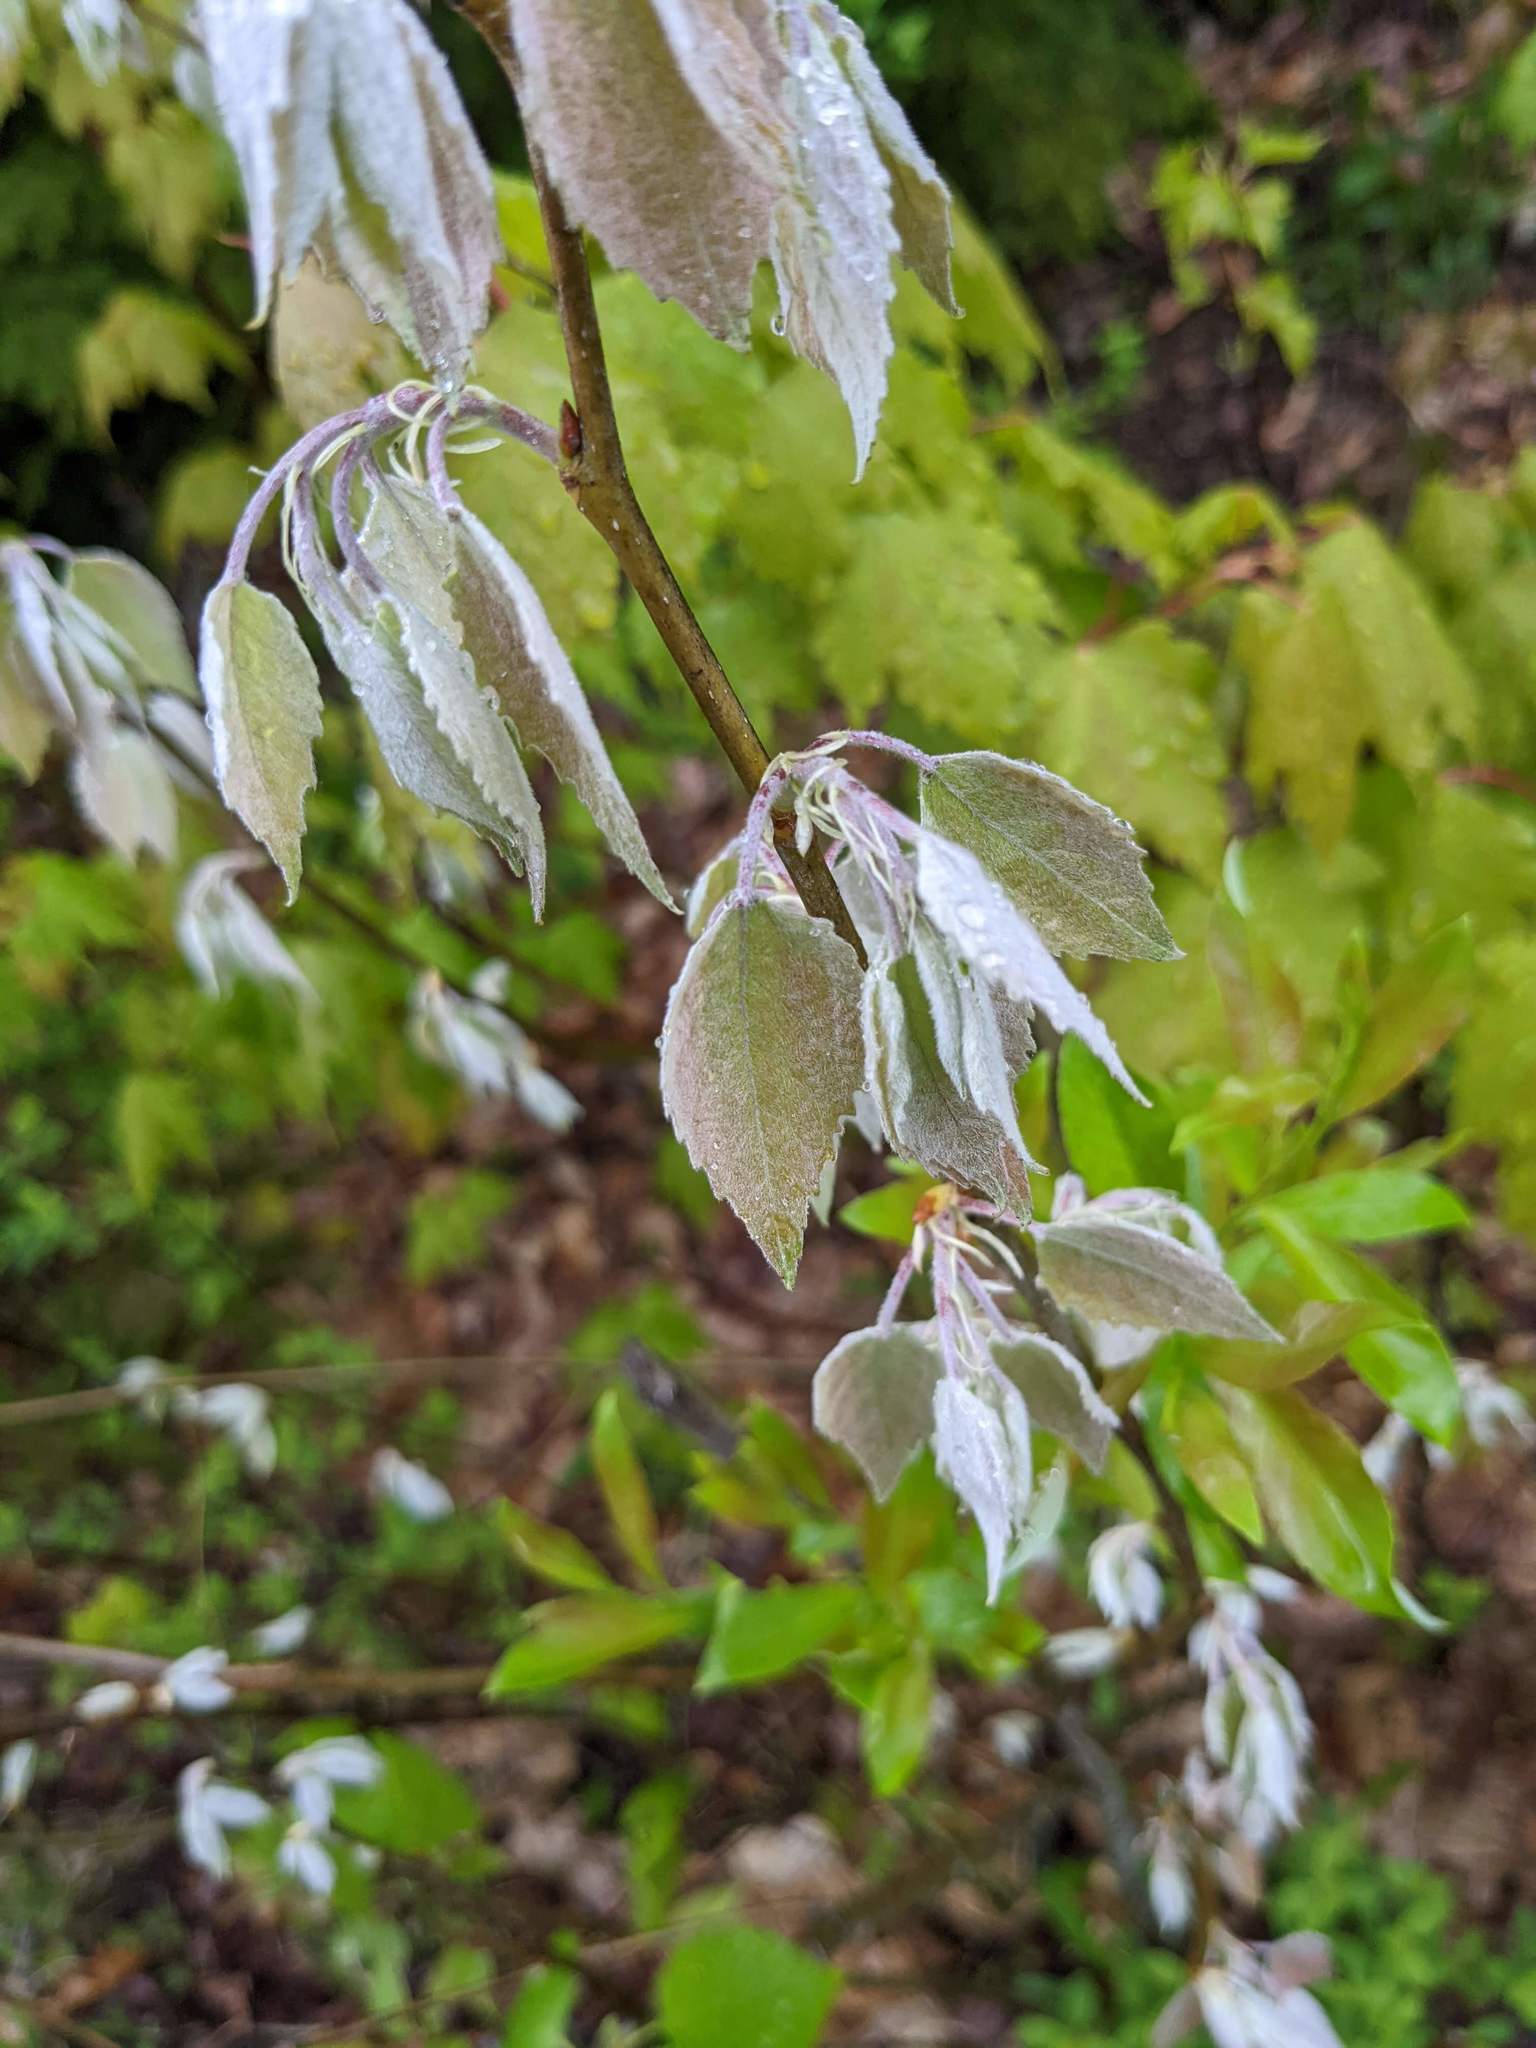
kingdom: Plantae
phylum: Tracheophyta
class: Magnoliopsida
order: Malpighiales
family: Salicaceae
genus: Populus
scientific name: Populus grandidentata
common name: Bigtooth aspen
